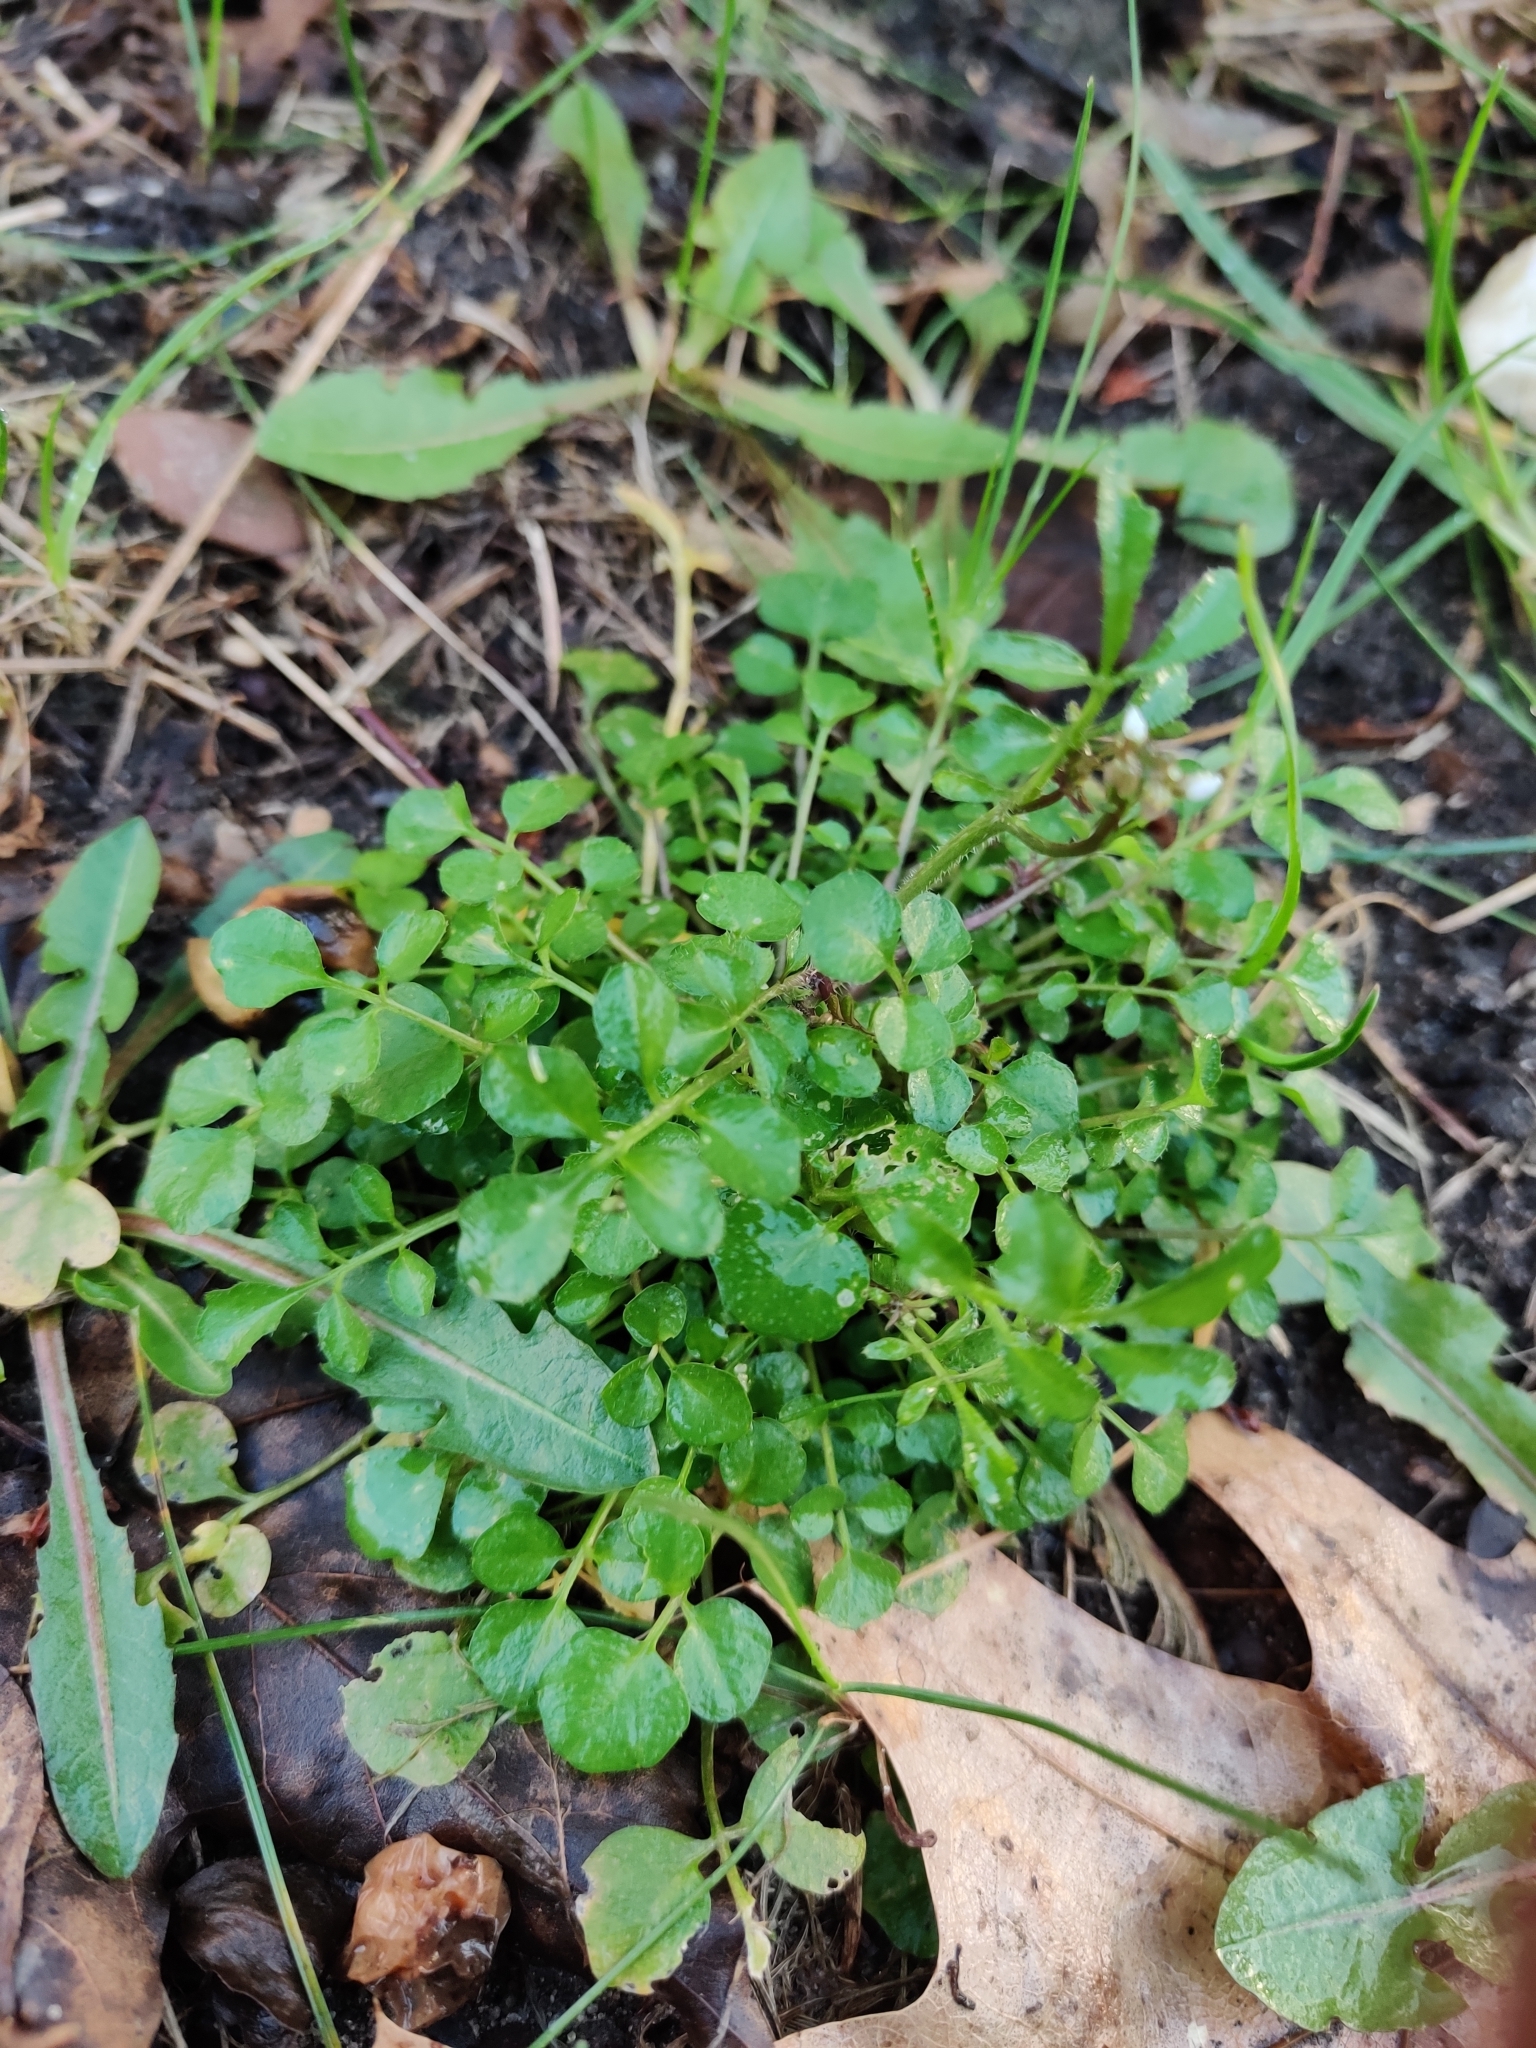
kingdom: Plantae
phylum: Tracheophyta
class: Magnoliopsida
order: Brassicales
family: Brassicaceae
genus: Cardamine
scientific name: Cardamine hirsuta
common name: Hairy bittercress
